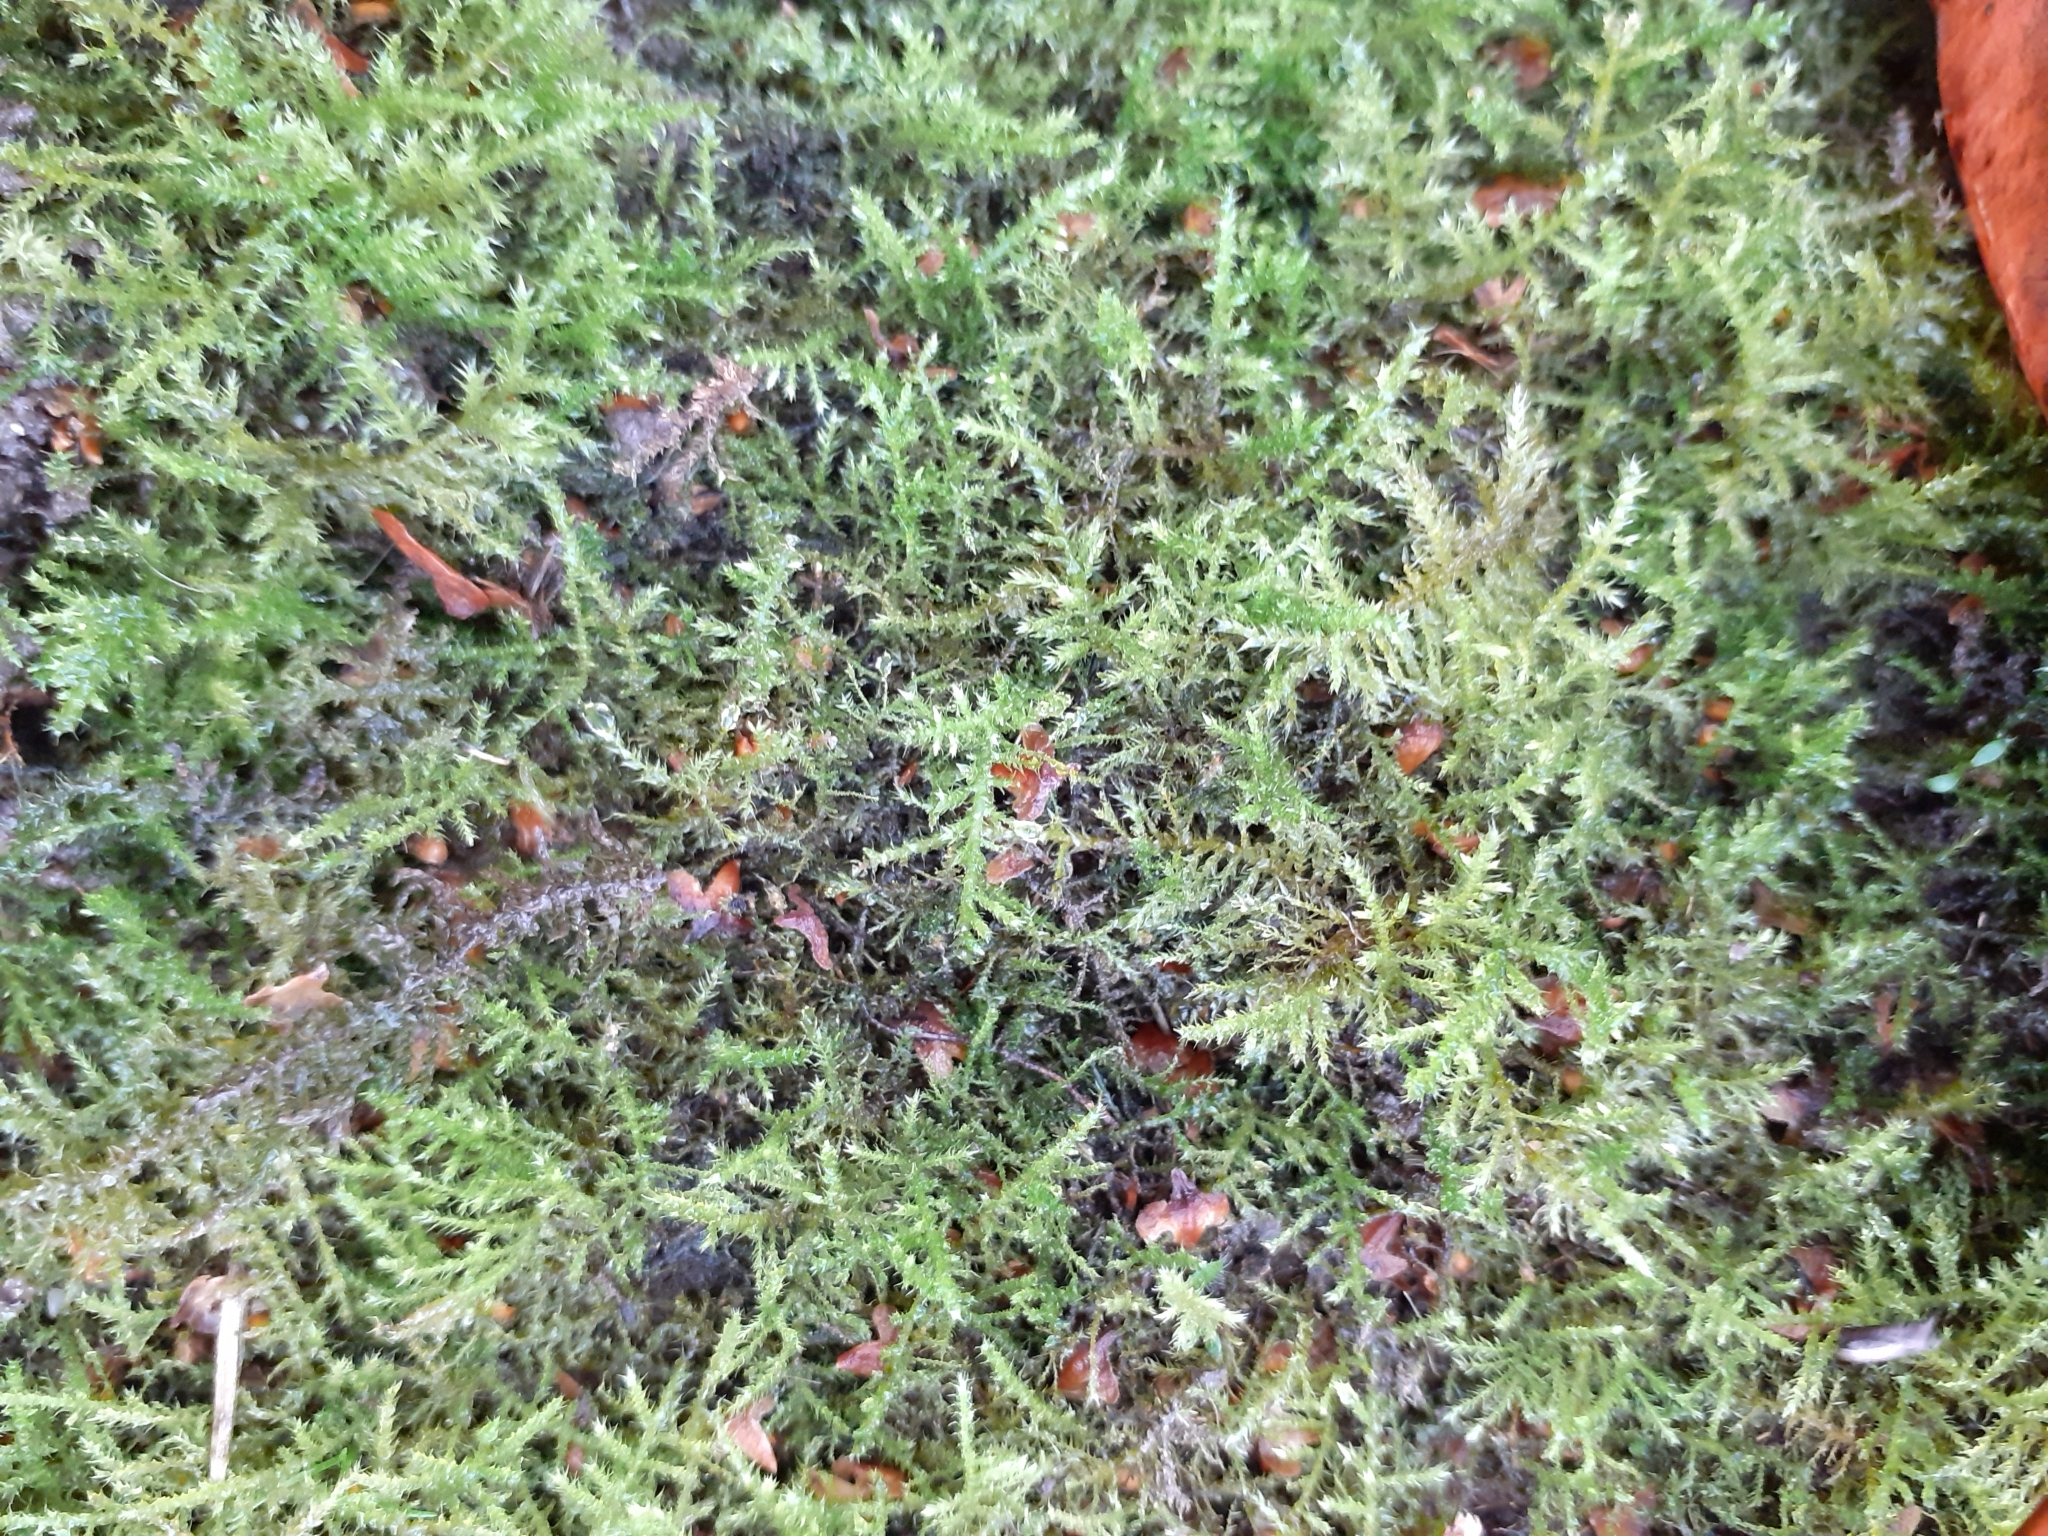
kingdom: Plantae
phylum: Bryophyta
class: Bryopsida
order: Hypnales
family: Brachytheciaceae
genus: Kindbergia
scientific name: Kindbergia praelonga
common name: Slender beaked moss
